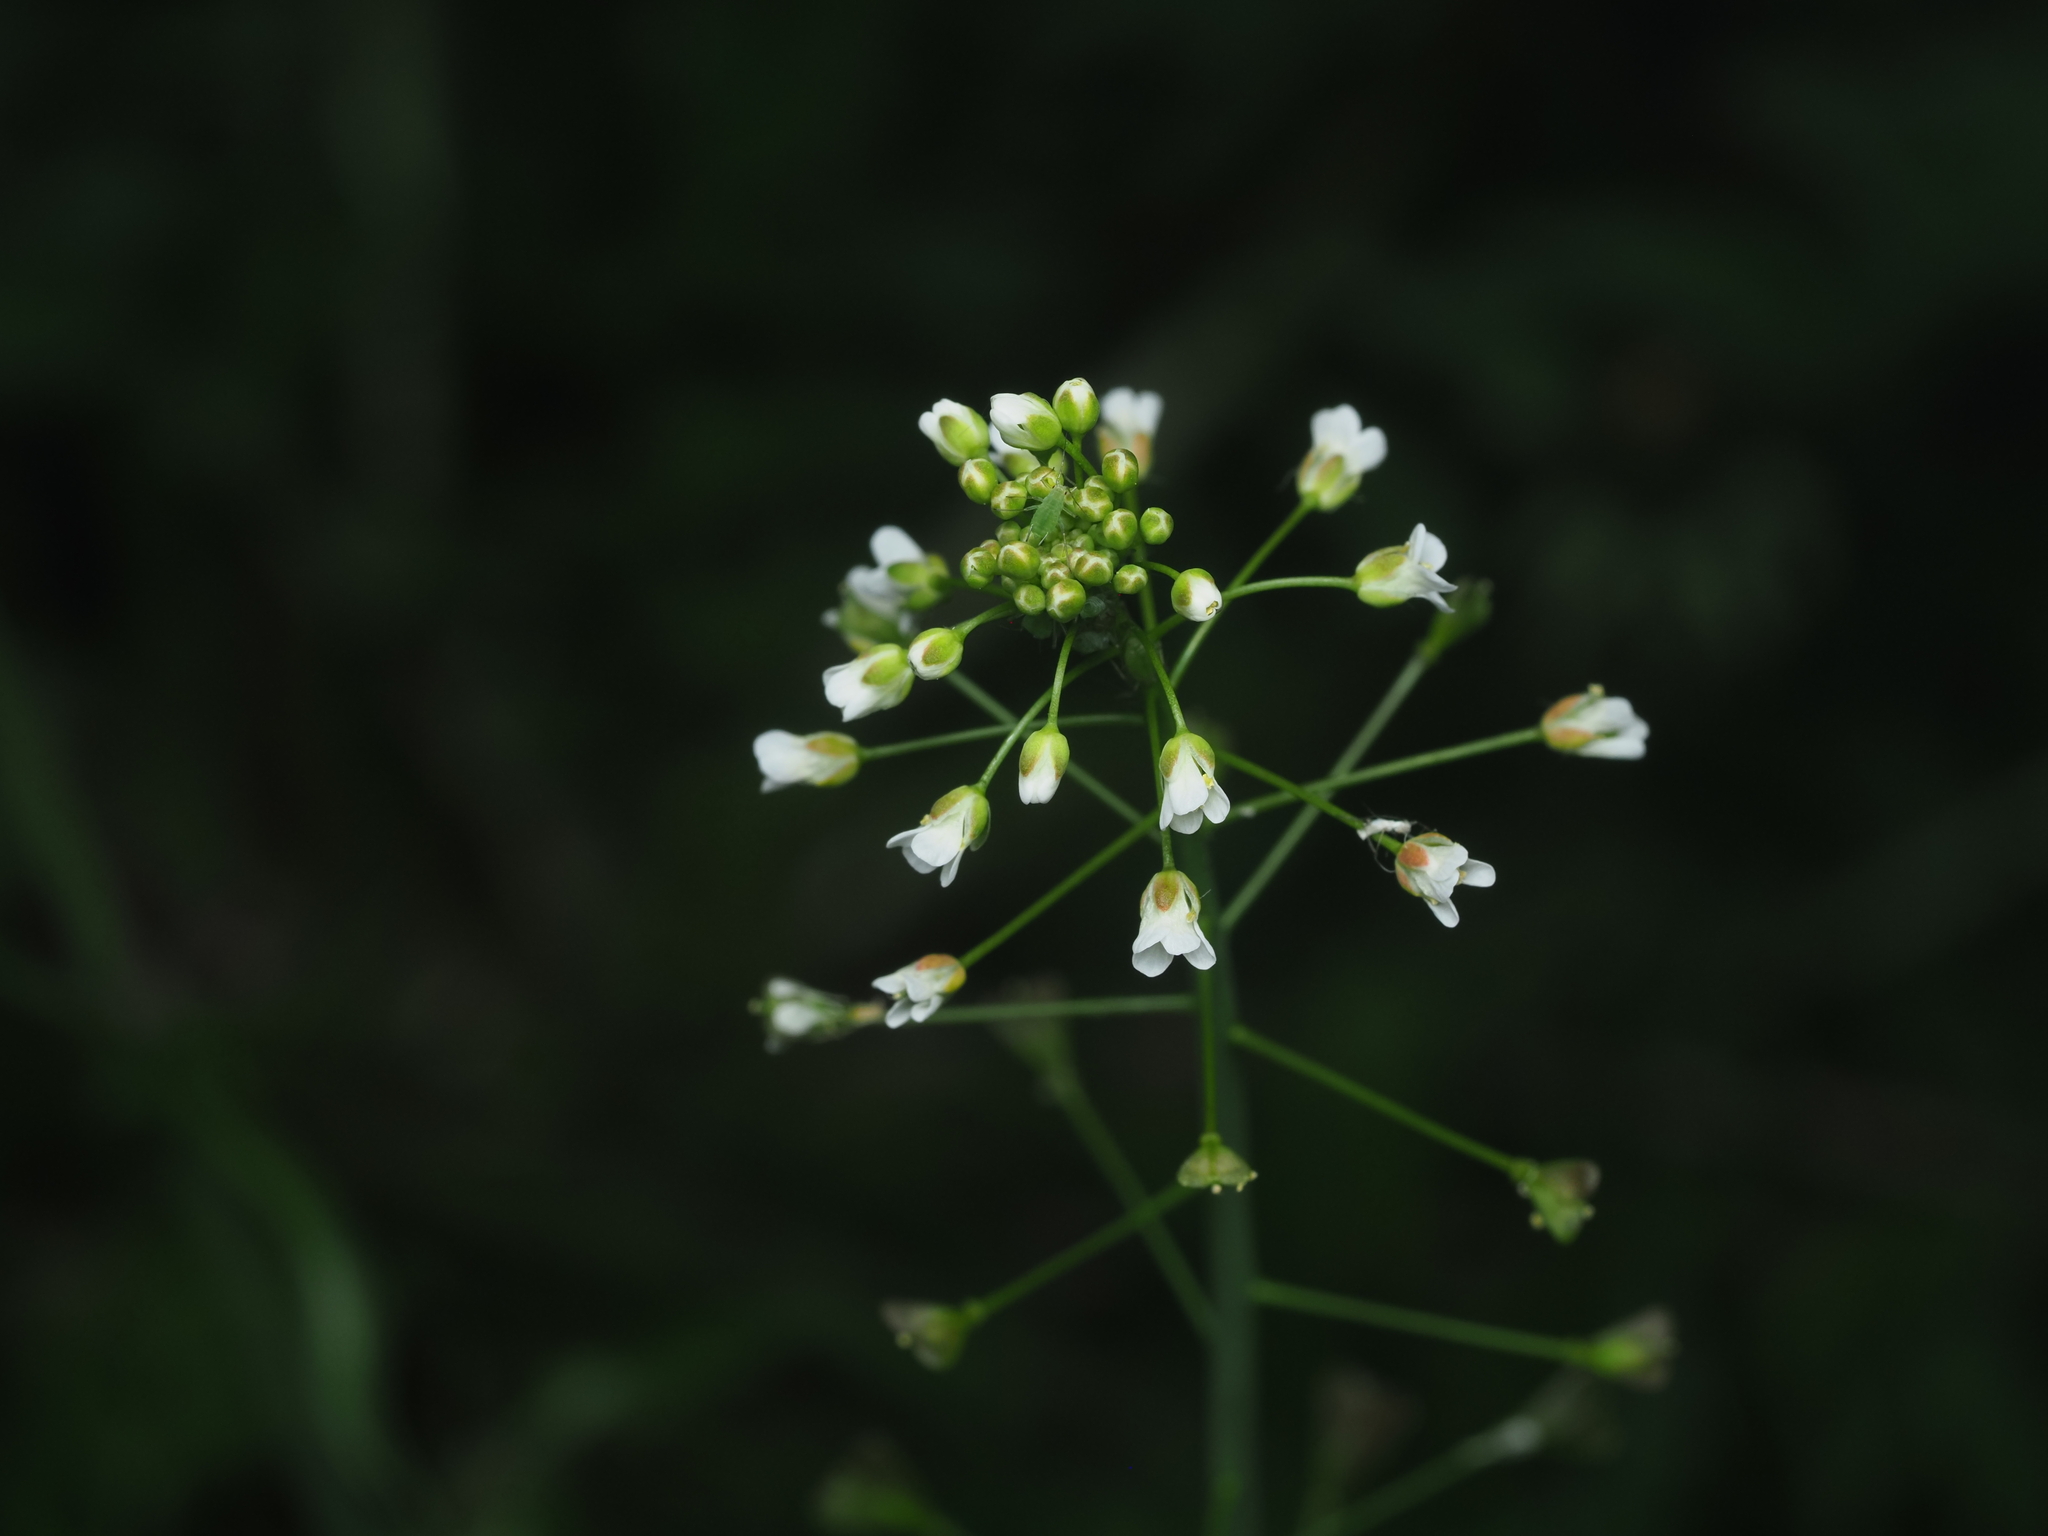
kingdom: Plantae
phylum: Tracheophyta
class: Magnoliopsida
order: Brassicales
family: Brassicaceae
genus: Capsella
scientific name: Capsella bursa-pastoris
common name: Shepherd's purse
